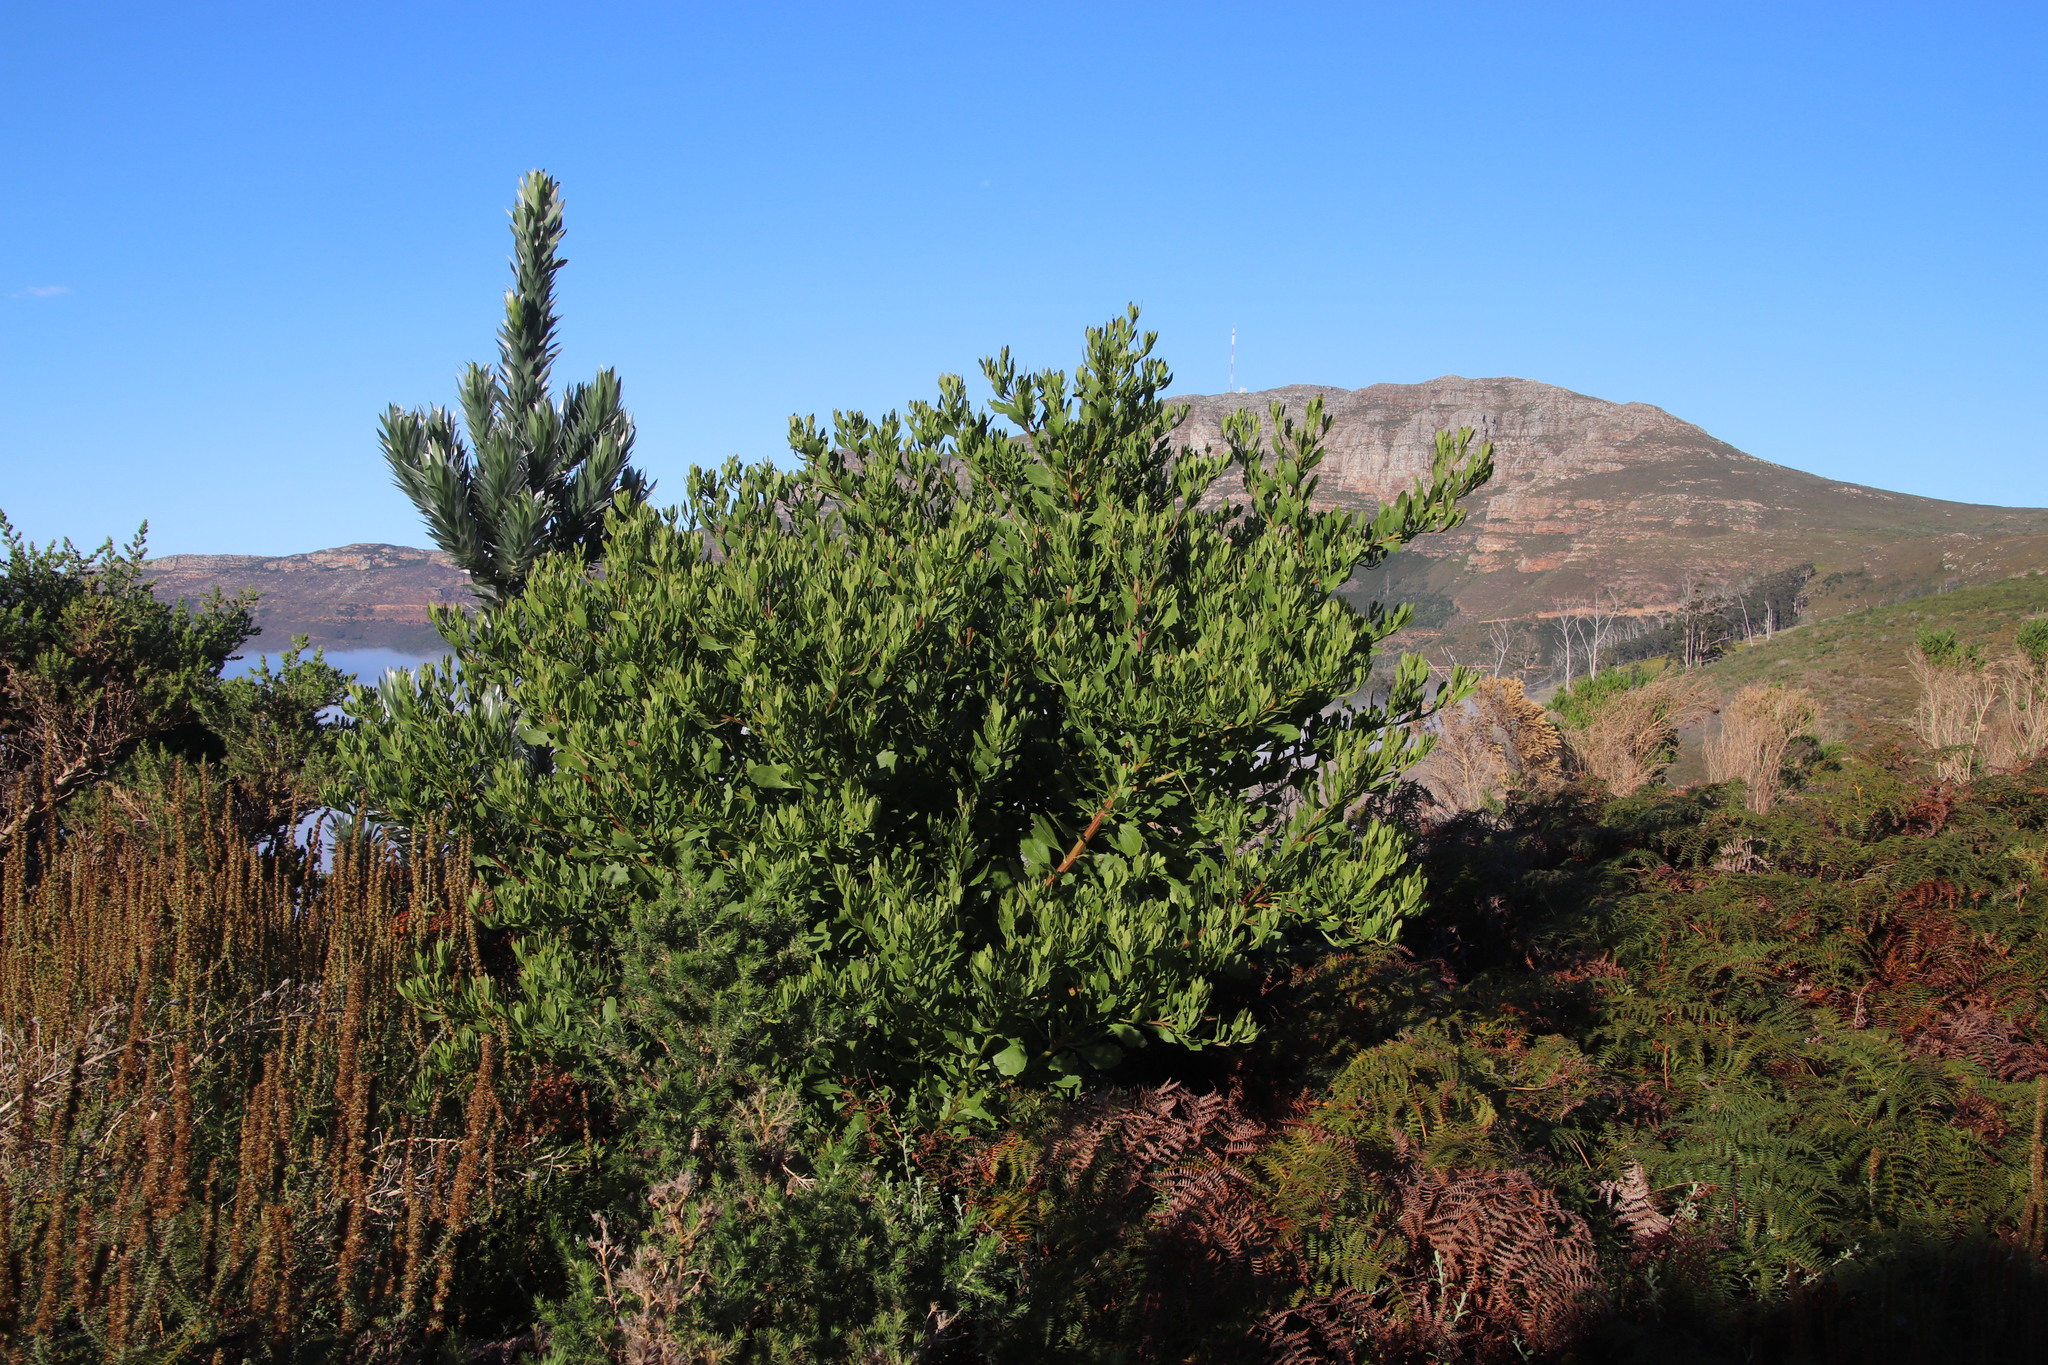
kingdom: Plantae
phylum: Tracheophyta
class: Magnoliopsida
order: Asterales
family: Asteraceae
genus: Osteospermum
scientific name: Osteospermum moniliferum
